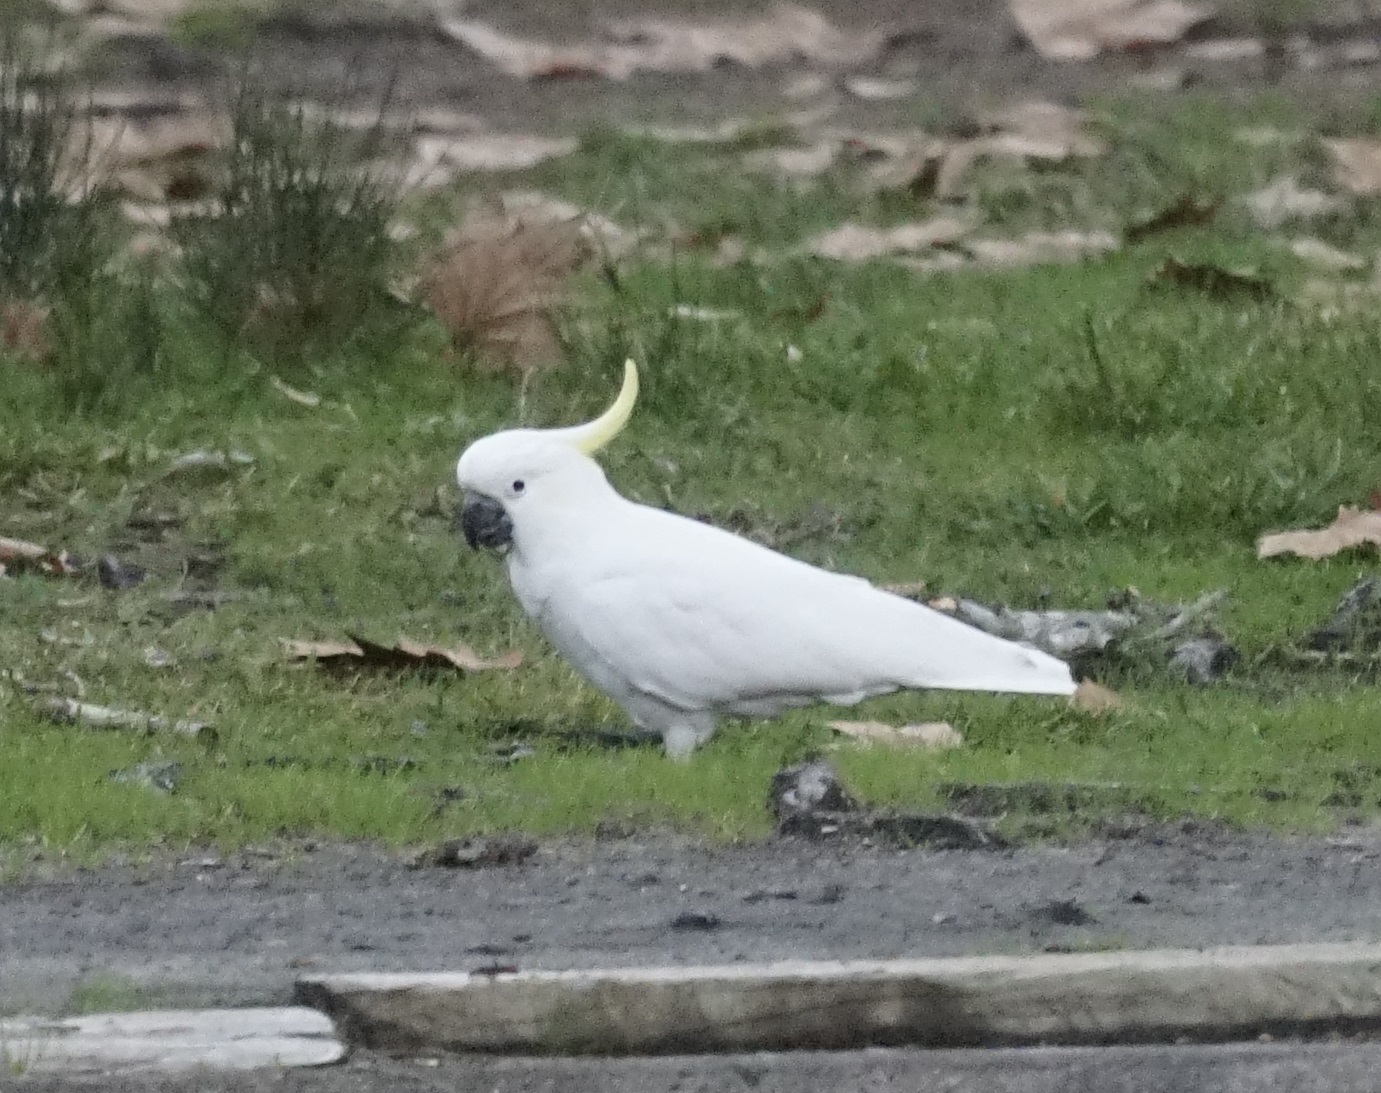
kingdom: Animalia
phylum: Chordata
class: Aves
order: Psittaciformes
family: Psittacidae
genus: Cacatua
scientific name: Cacatua galerita
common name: Sulphur-crested cockatoo
